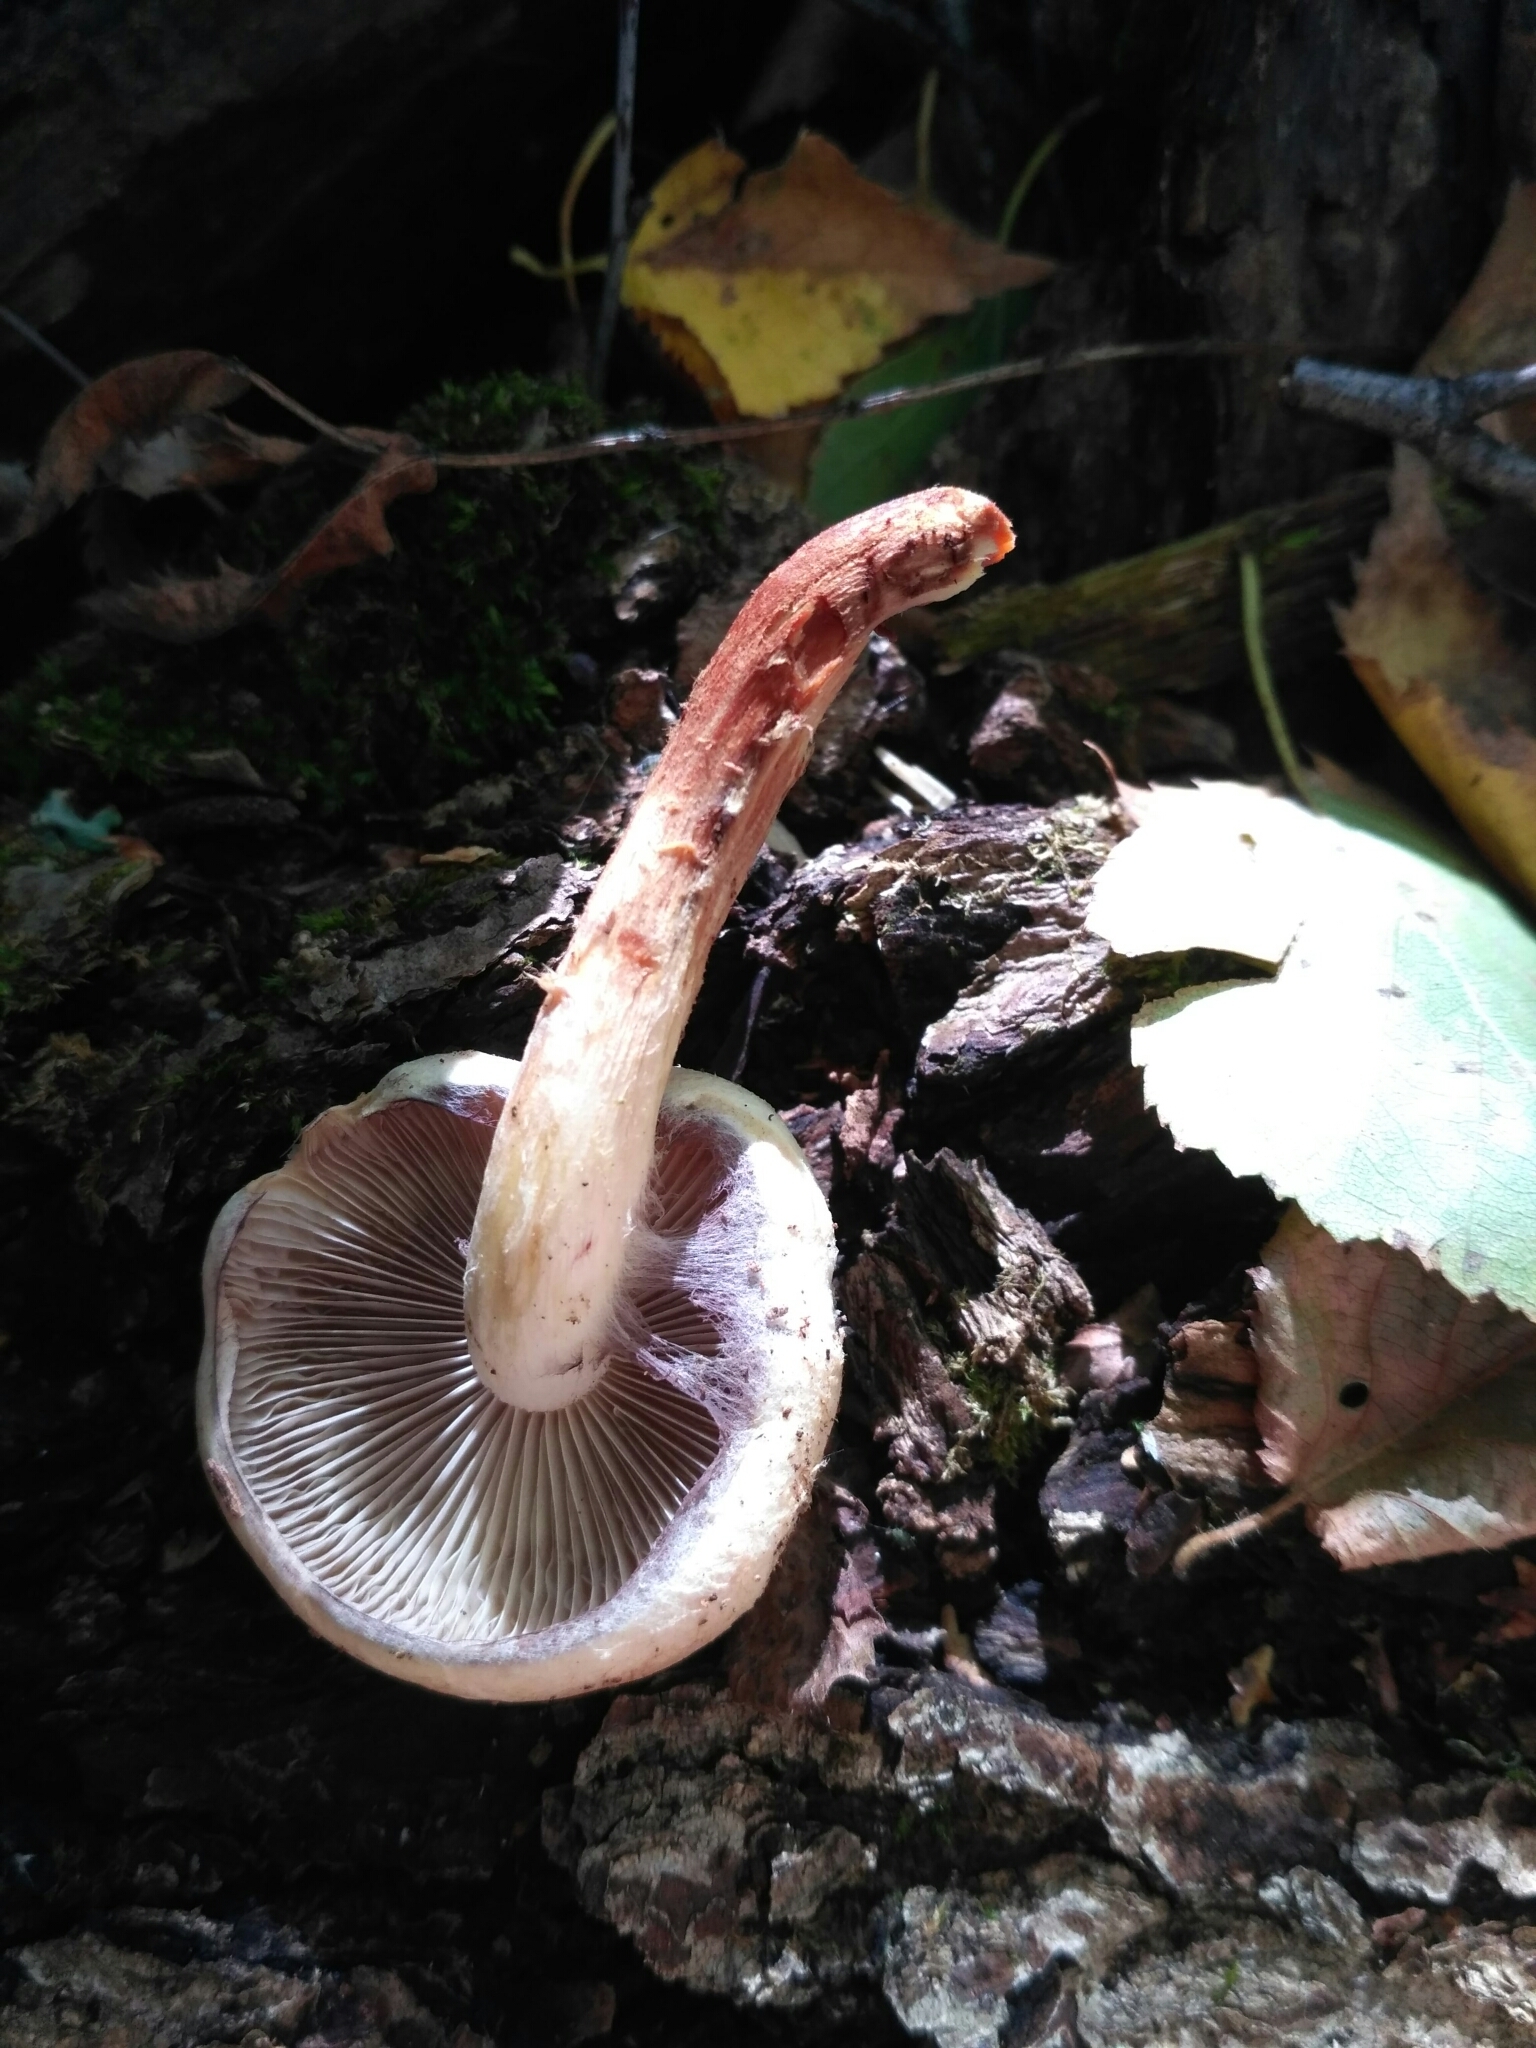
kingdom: Fungi
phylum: Basidiomycota
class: Agaricomycetes
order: Agaricales
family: Strophariaceae
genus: Hypholoma
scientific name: Hypholoma lateritium
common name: Brick caps
